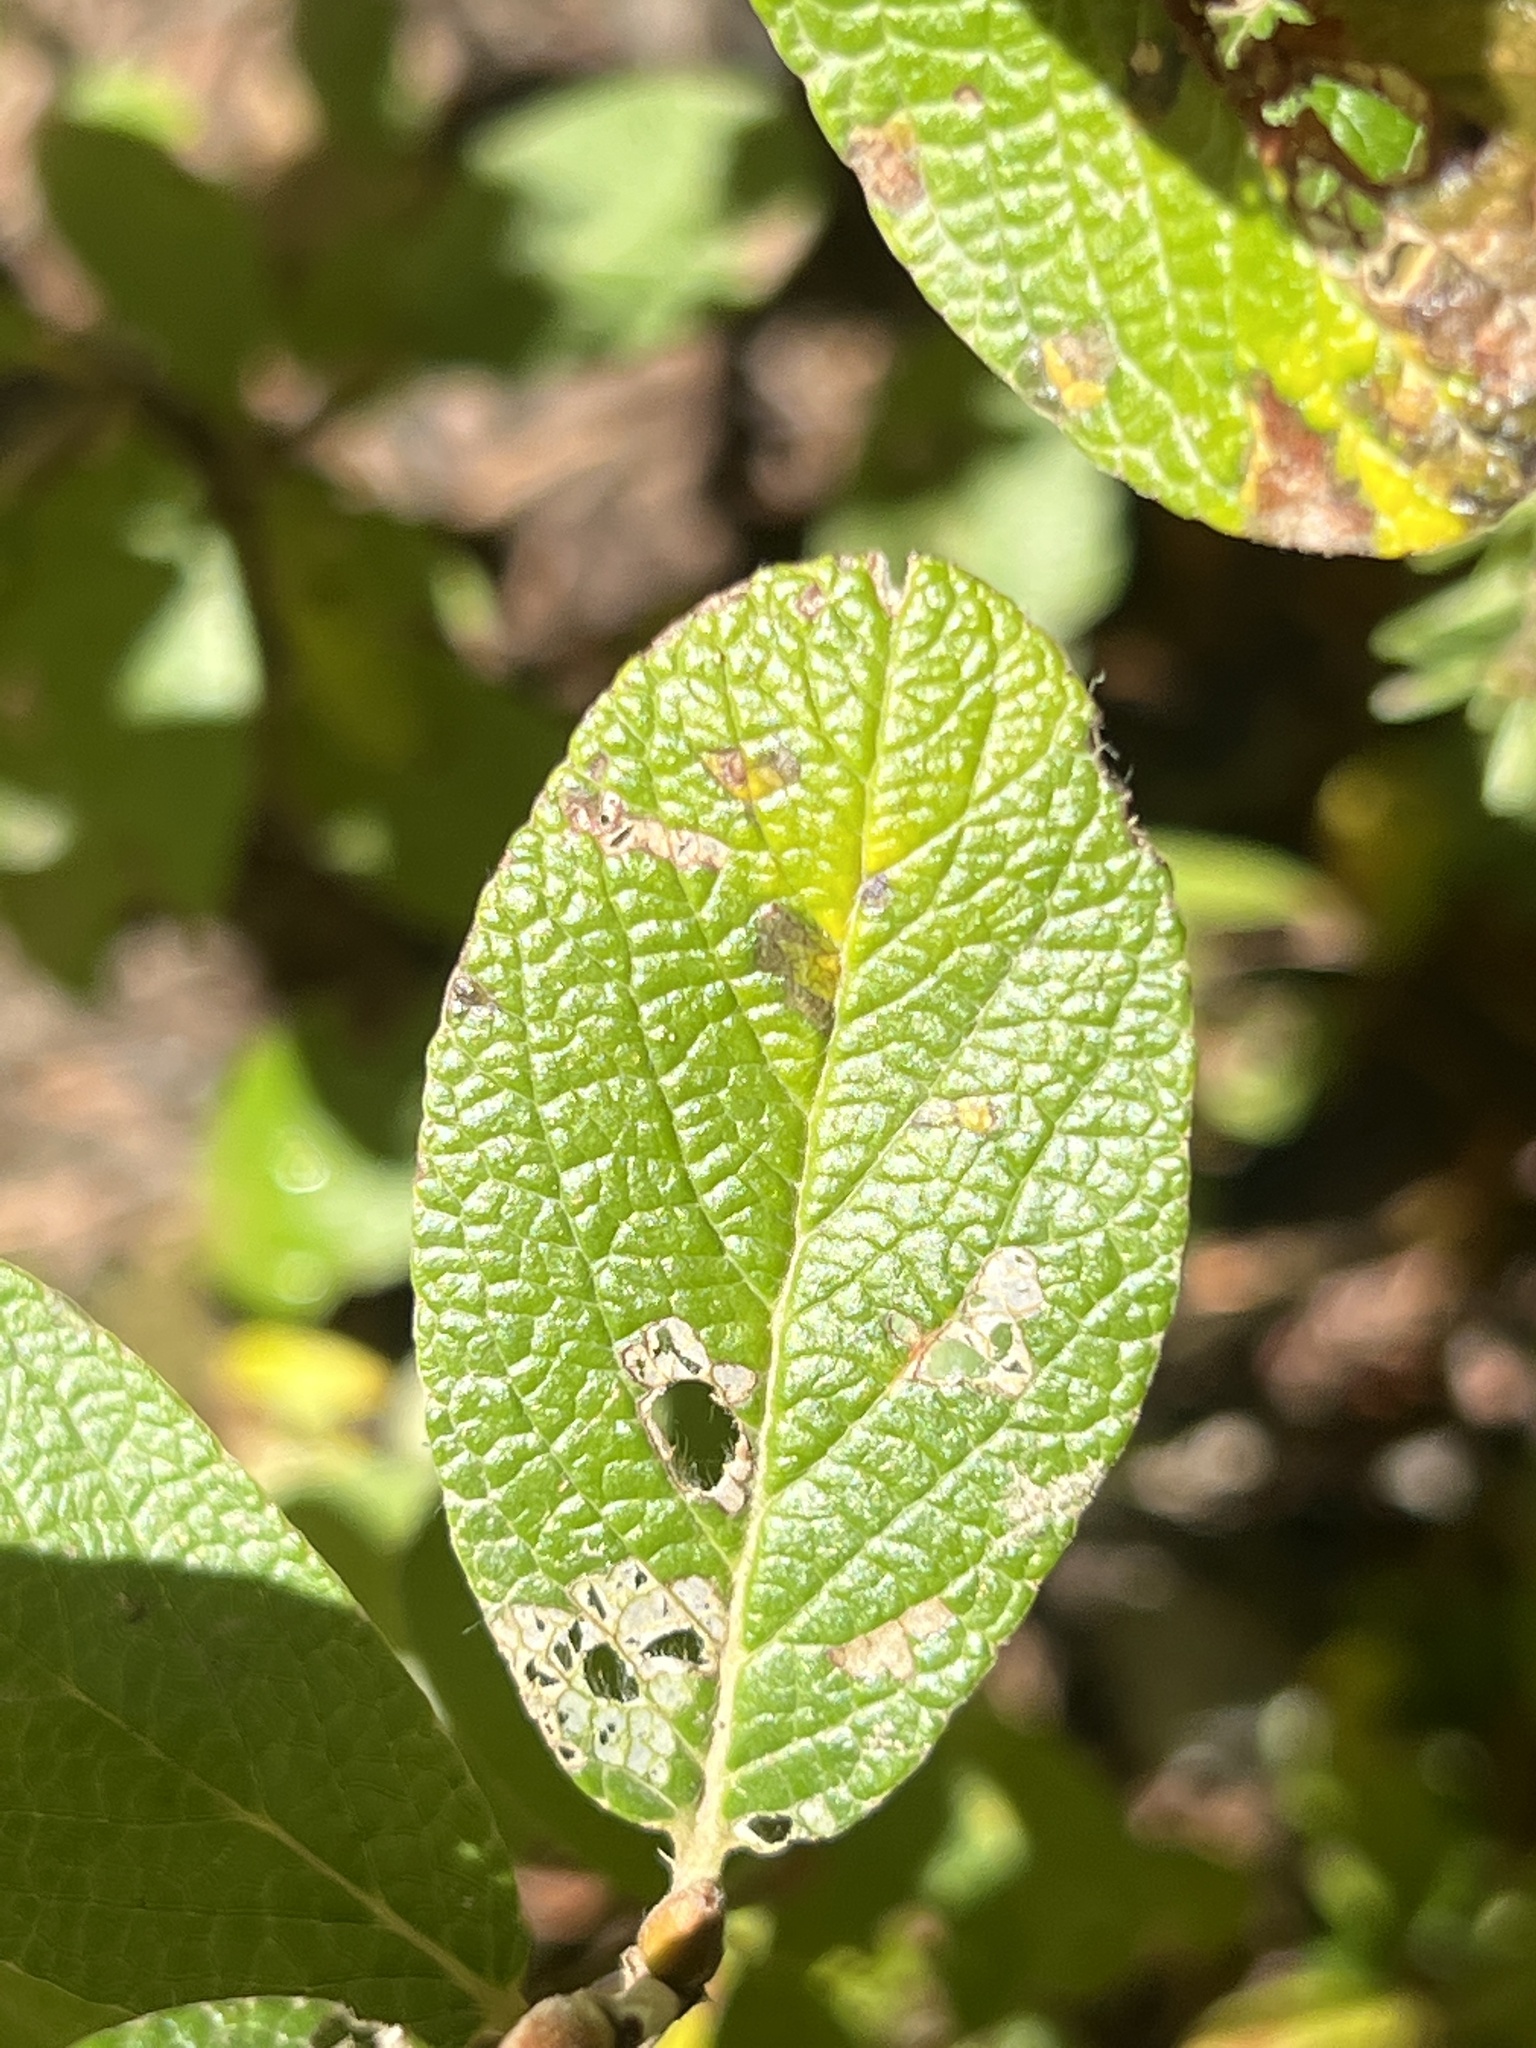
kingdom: Plantae
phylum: Tracheophyta
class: Magnoliopsida
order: Malpighiales
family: Salicaceae
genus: Salix
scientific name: Salix vestita
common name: Hairy willow
